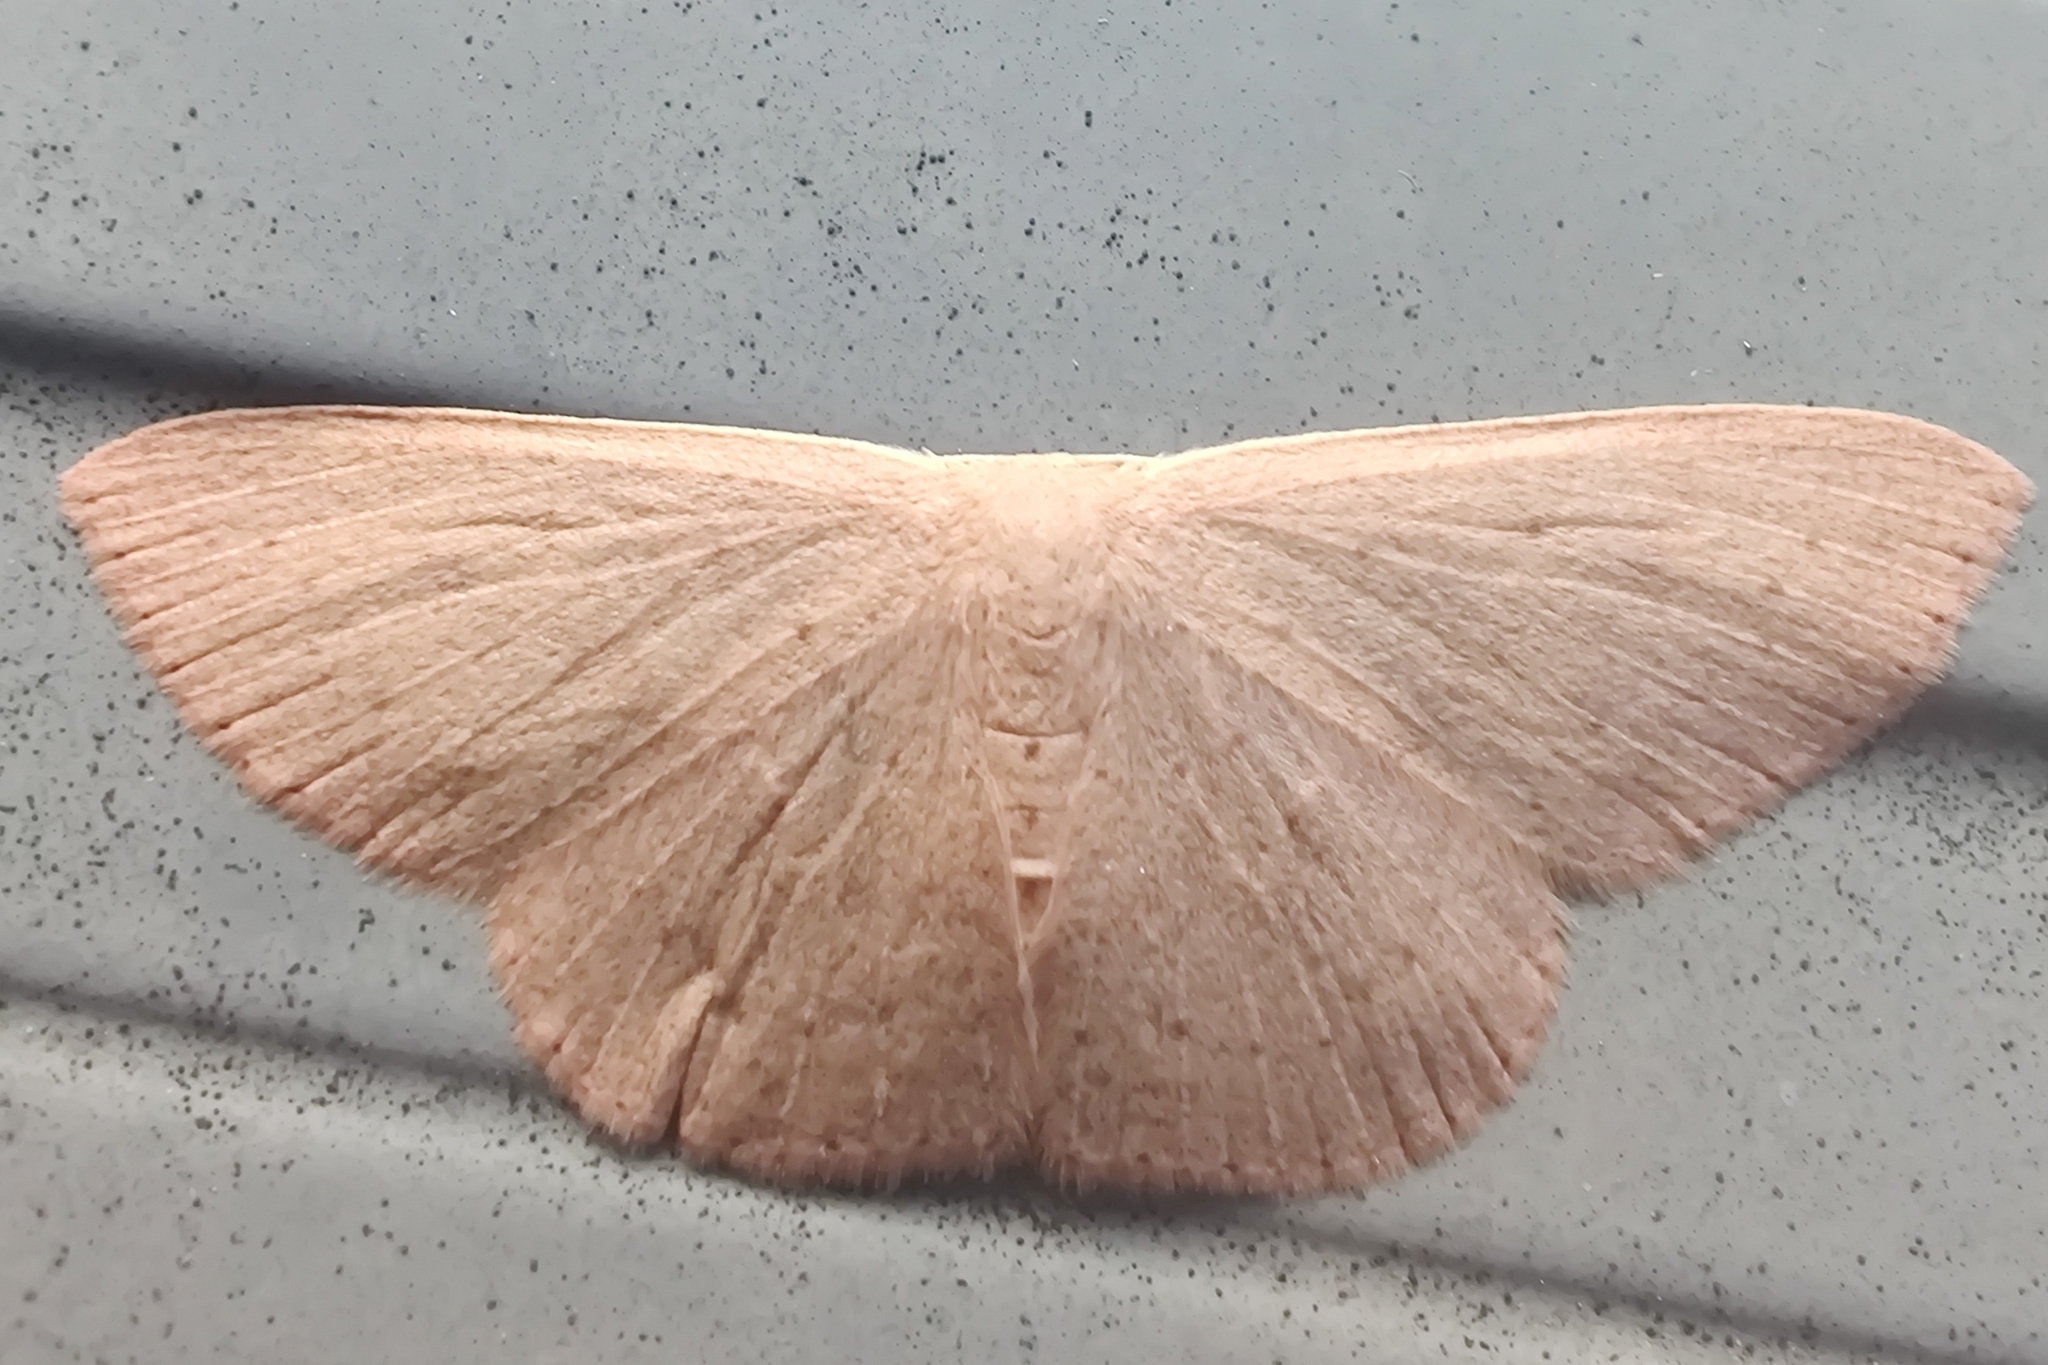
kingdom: Animalia
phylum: Arthropoda
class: Insecta
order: Lepidoptera
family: Geometridae
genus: Cyclophora
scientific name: Cyclophora obstataria
